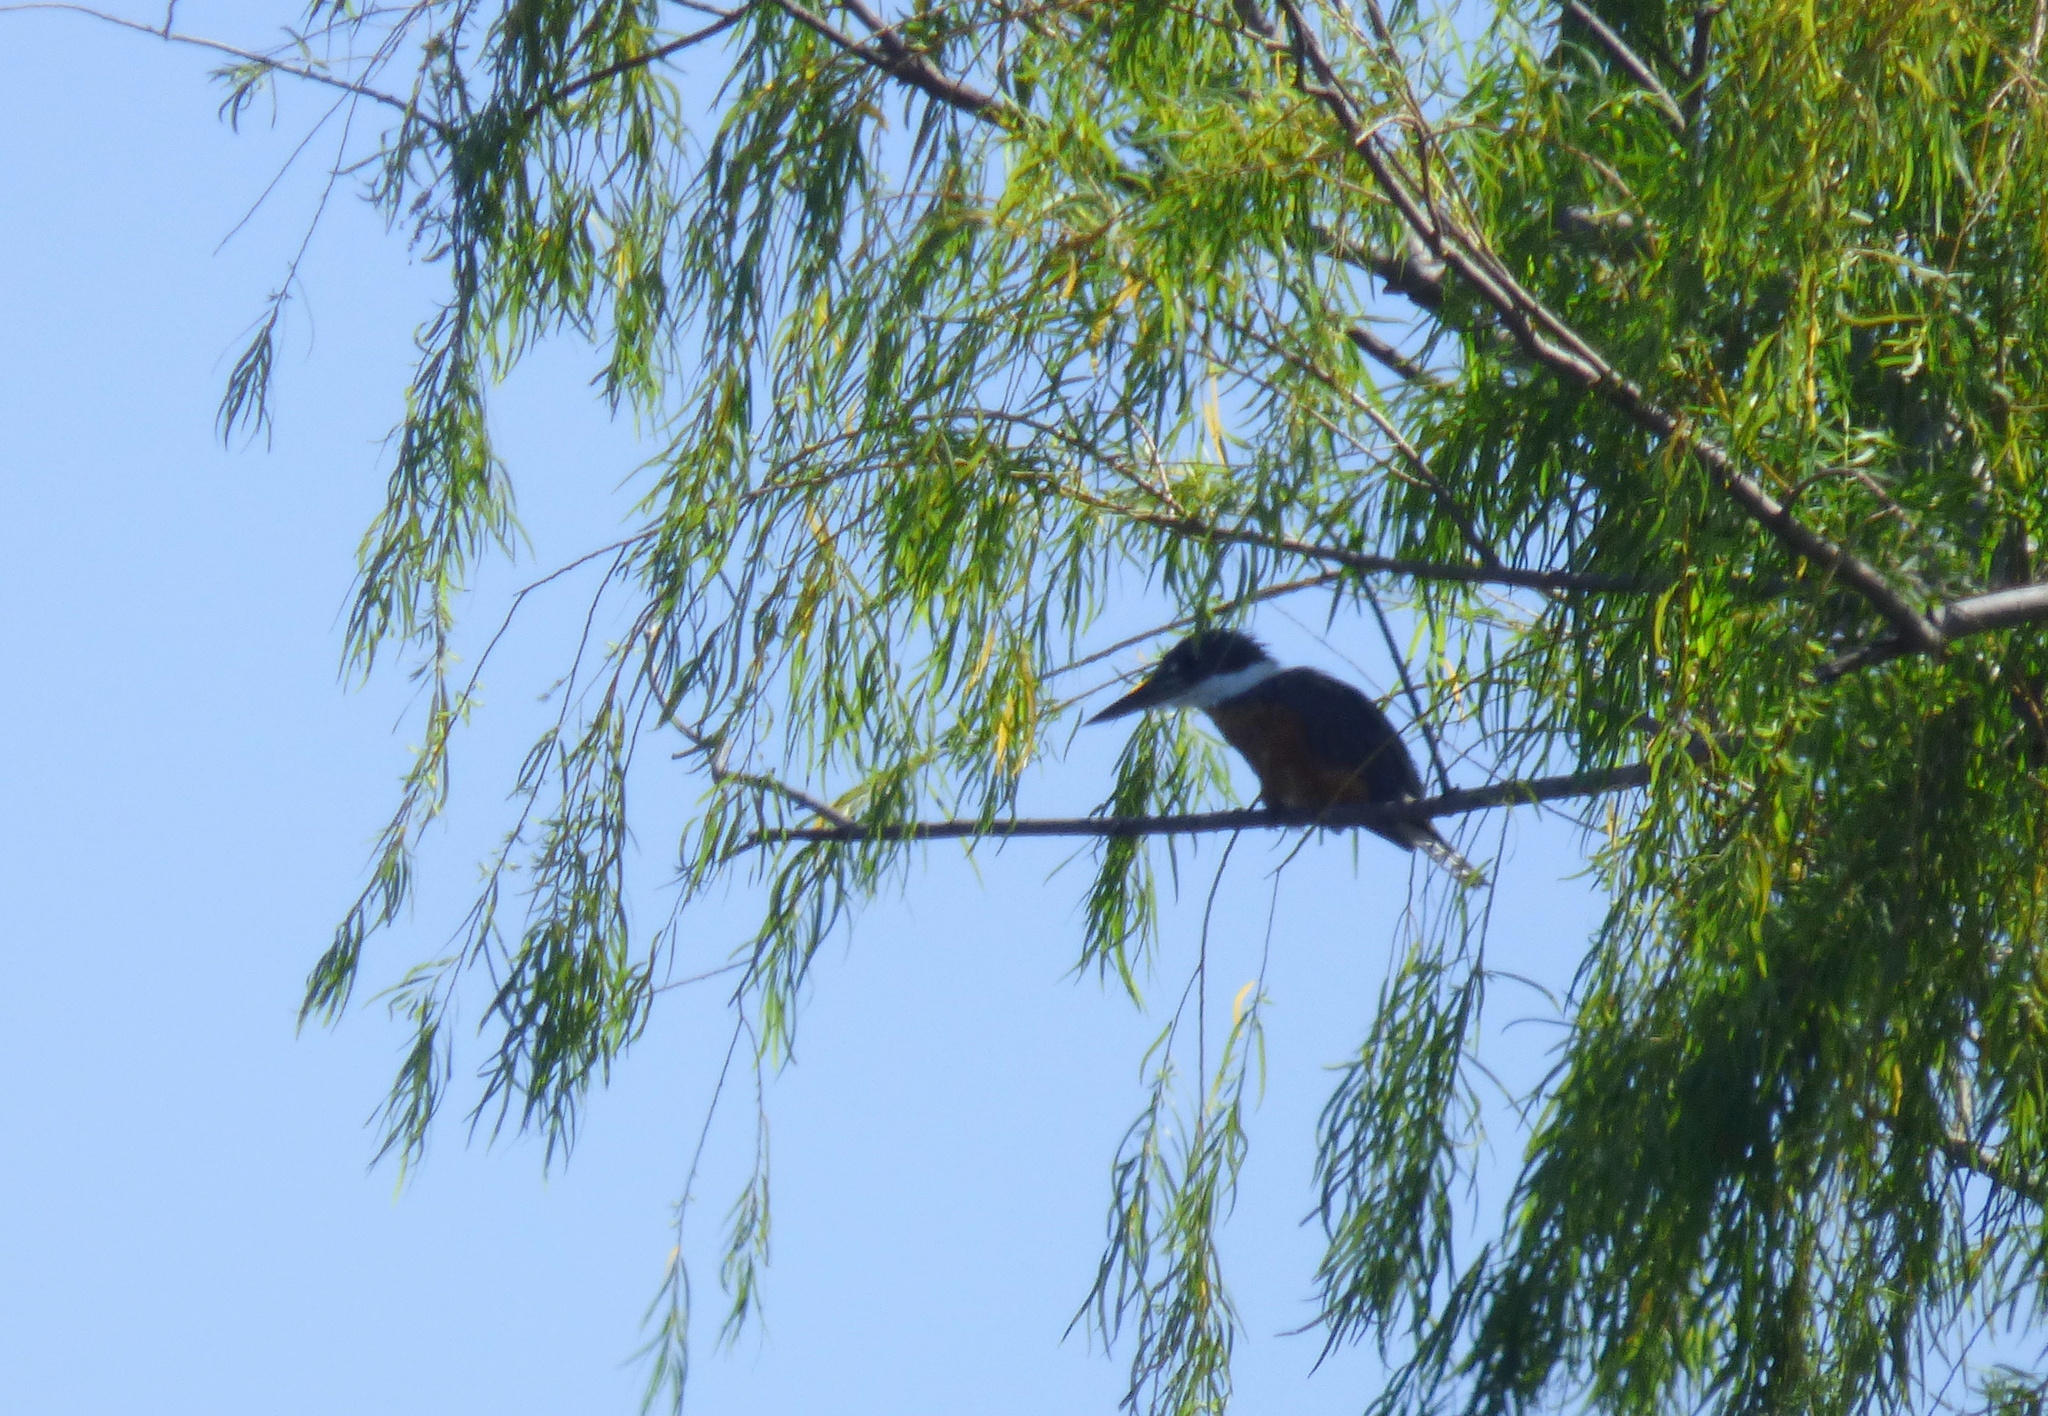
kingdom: Animalia
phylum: Chordata
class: Aves
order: Coraciiformes
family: Alcedinidae
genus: Megaceryle
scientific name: Megaceryle torquata
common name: Ringed kingfisher
